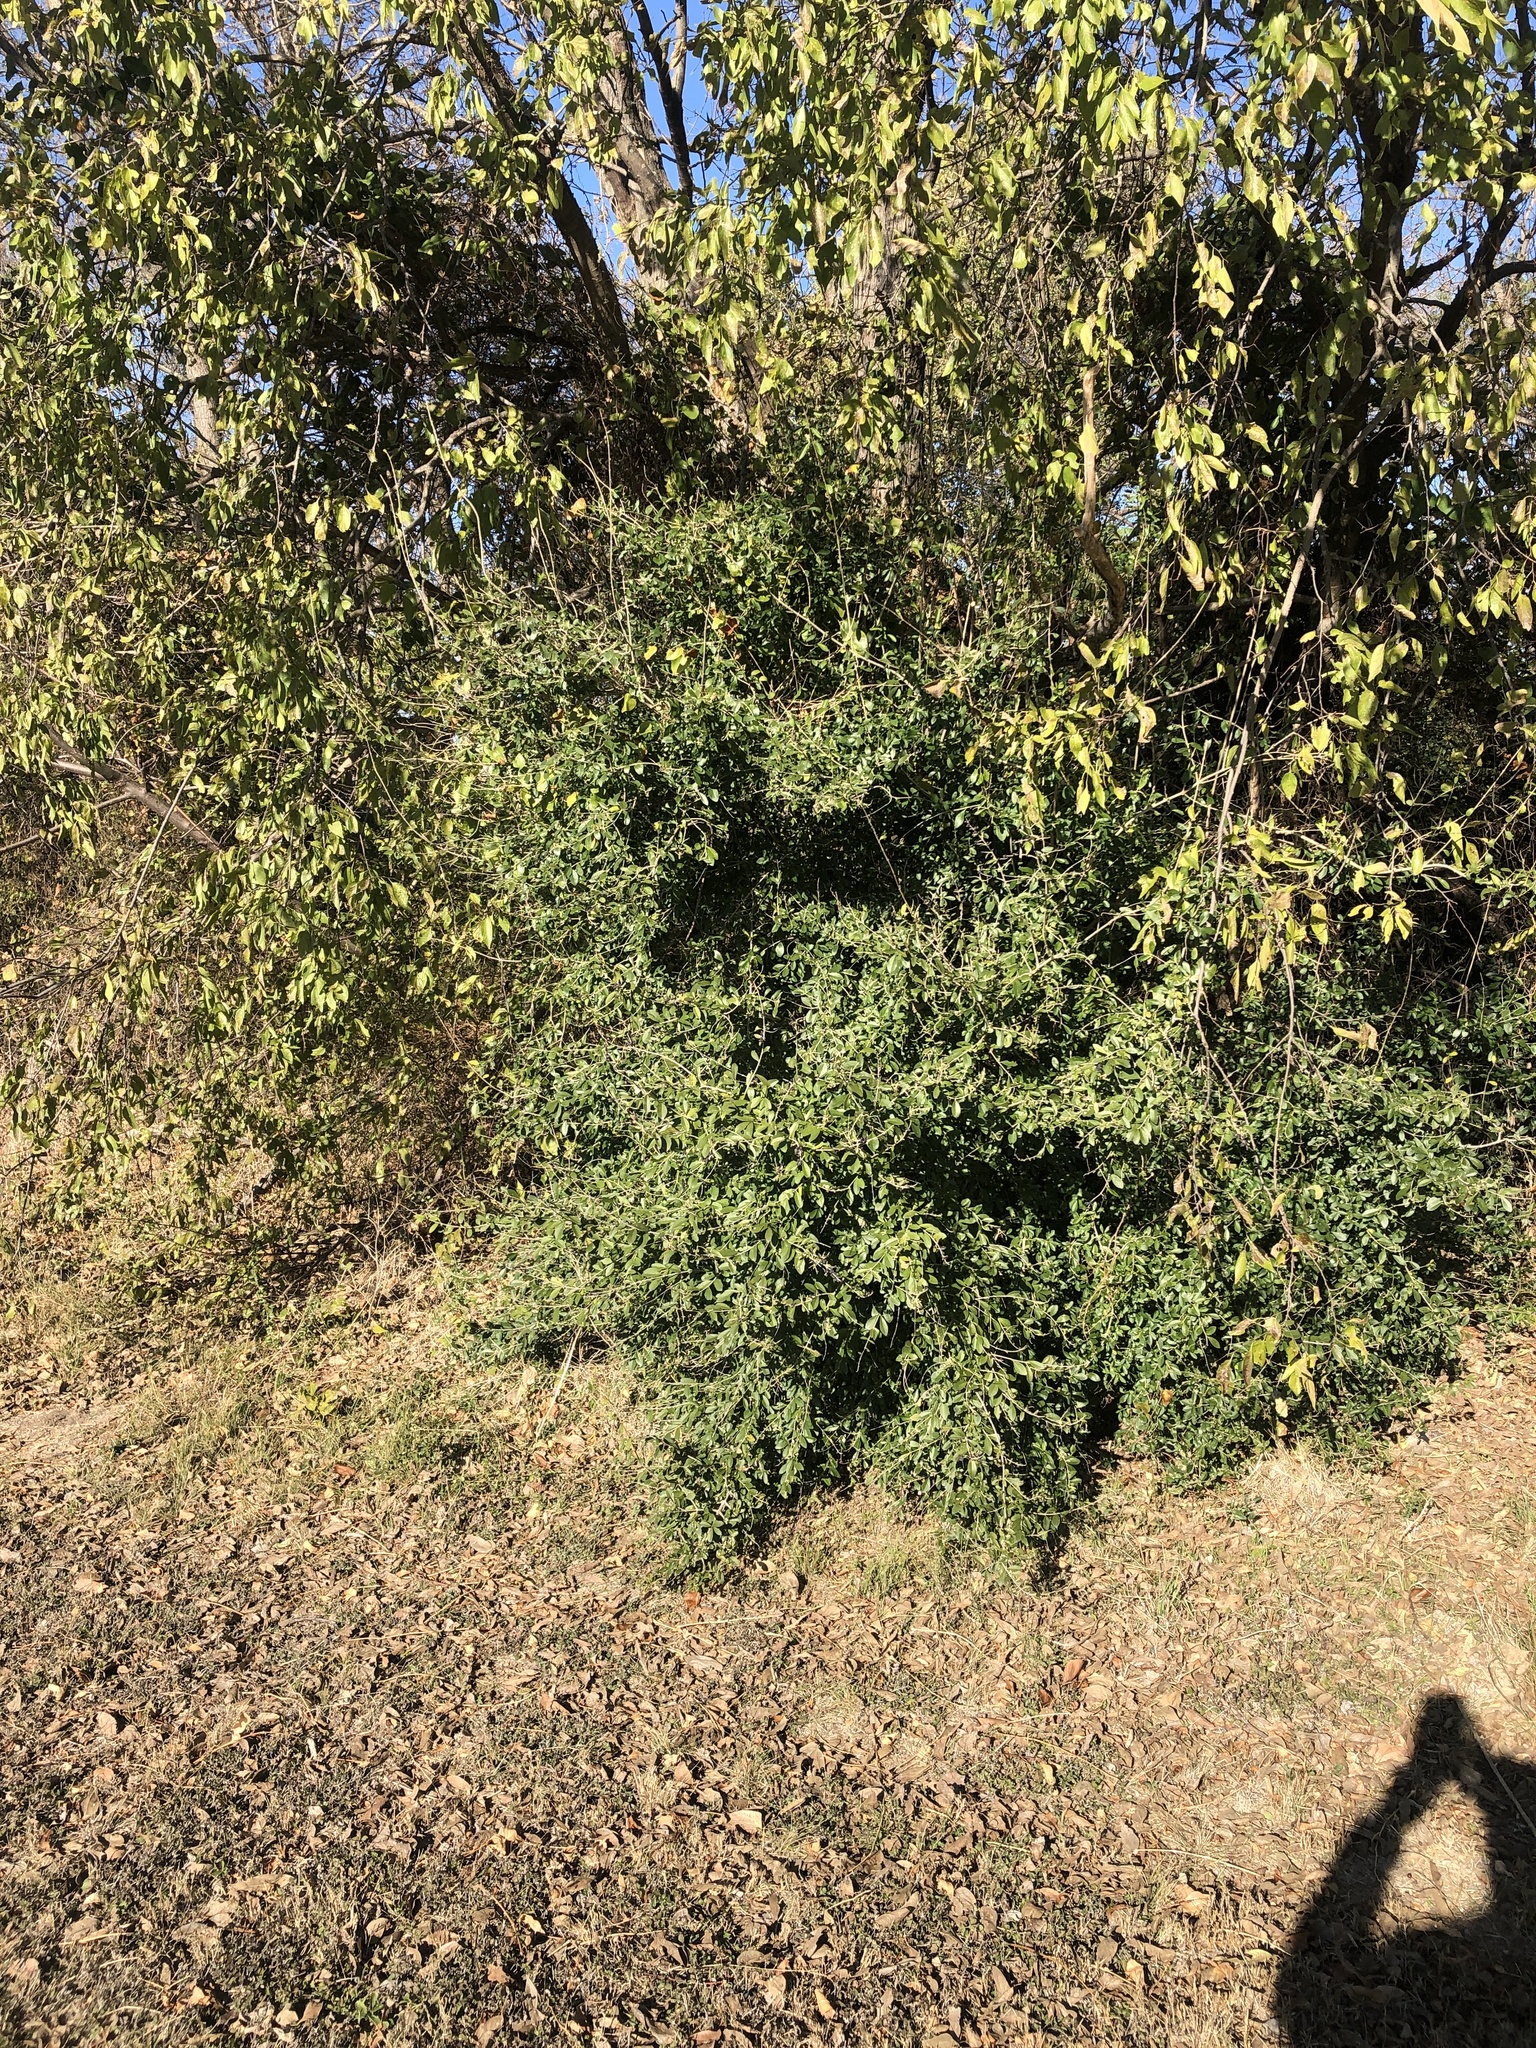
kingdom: Plantae
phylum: Tracheophyta
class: Magnoliopsida
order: Lamiales
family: Oleaceae
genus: Ligustrum
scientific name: Ligustrum quihoui
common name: Waxyleaf privet
